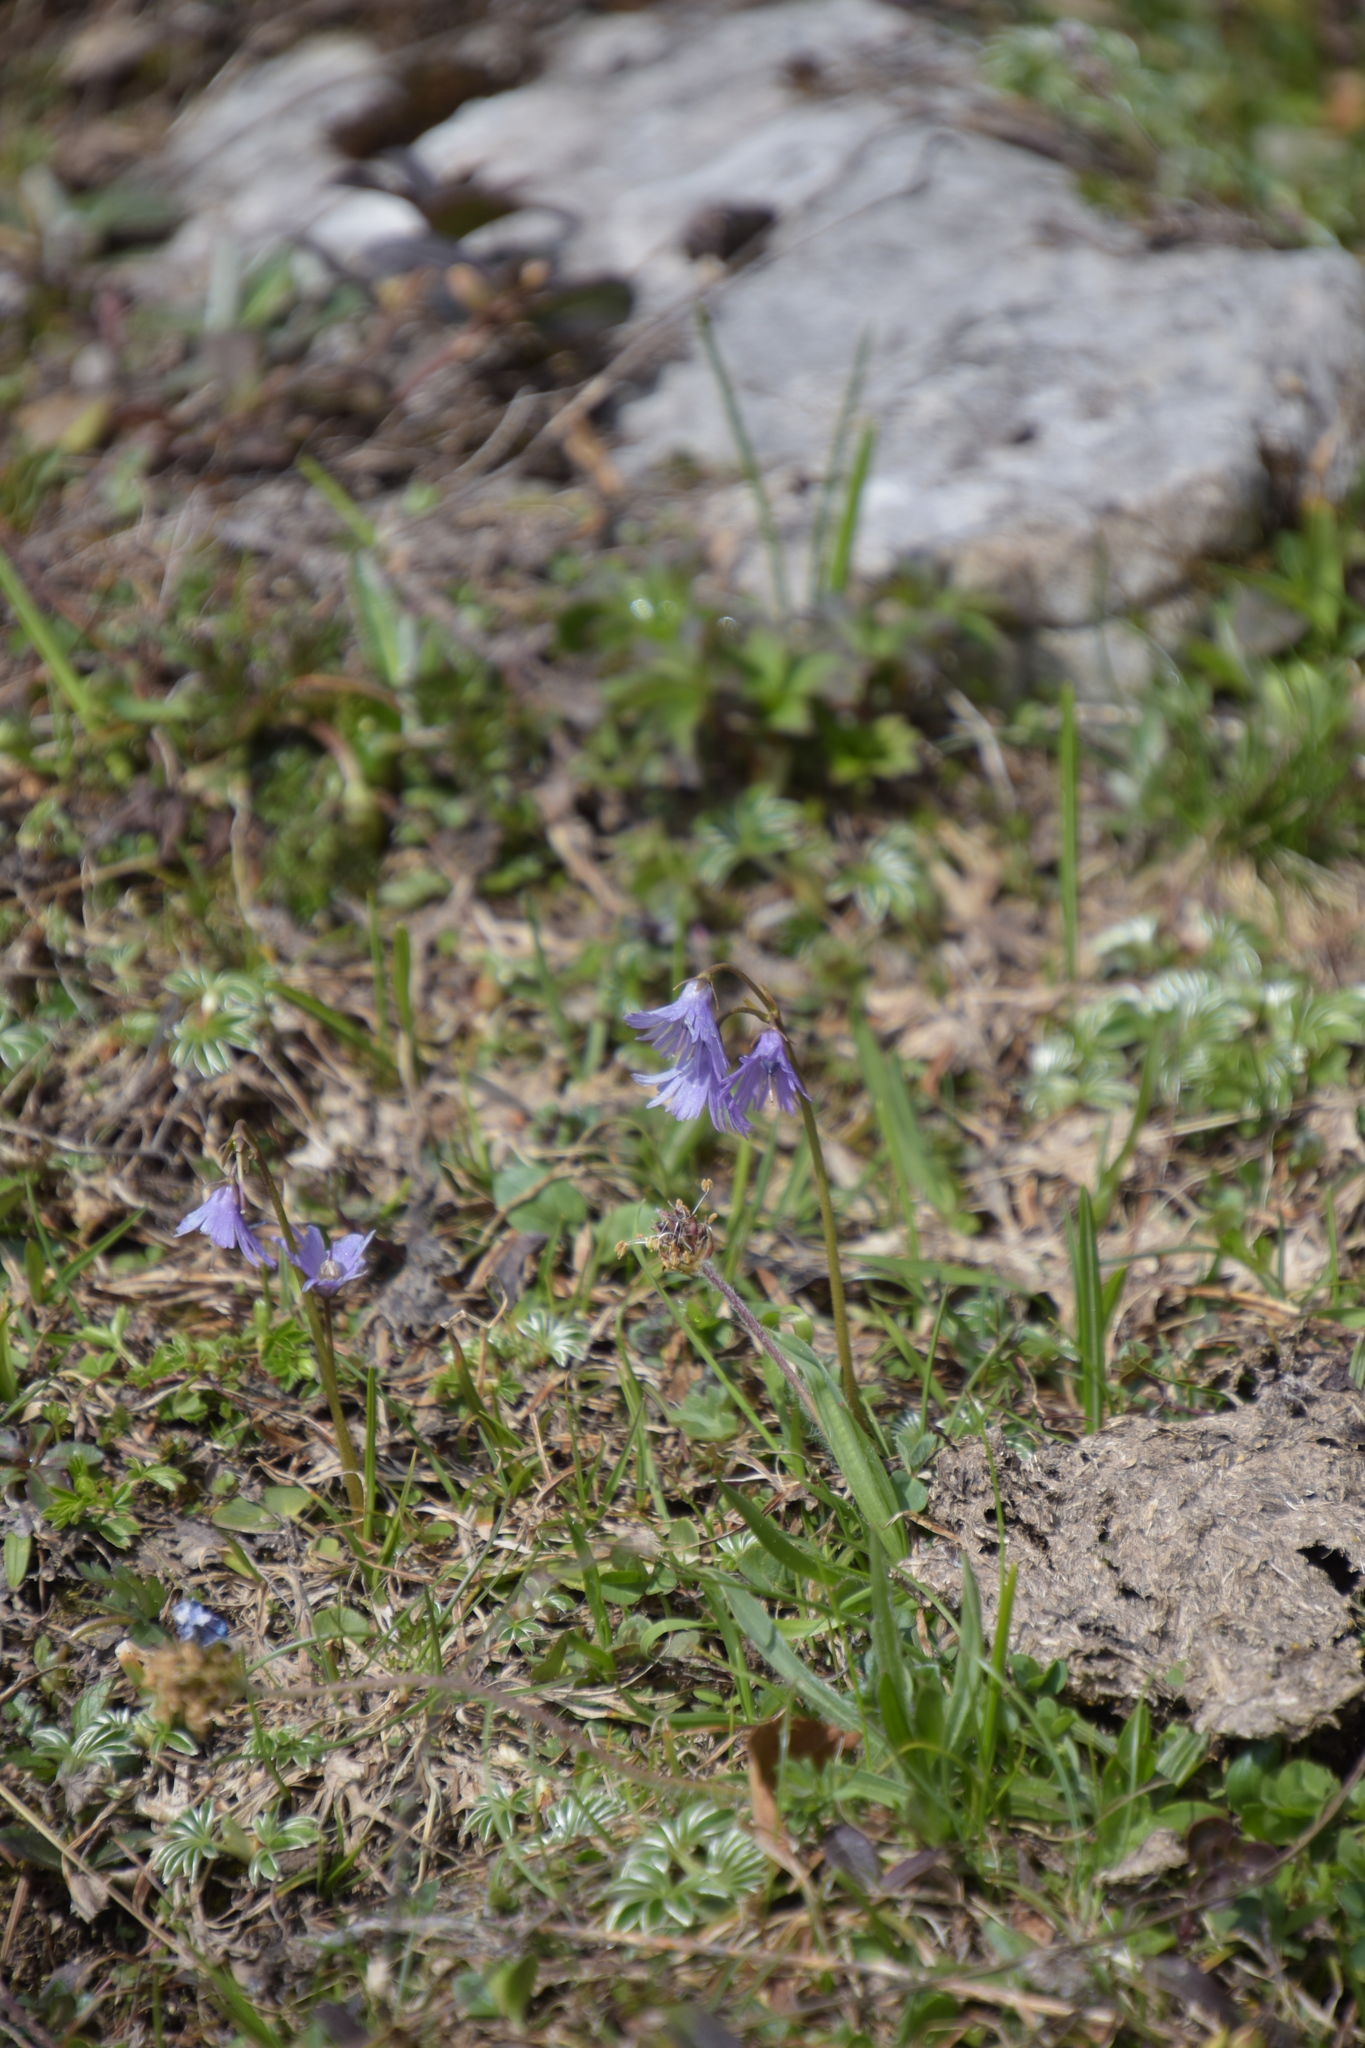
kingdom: Plantae
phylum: Tracheophyta
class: Magnoliopsida
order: Ericales
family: Primulaceae
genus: Soldanella
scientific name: Soldanella alpina
